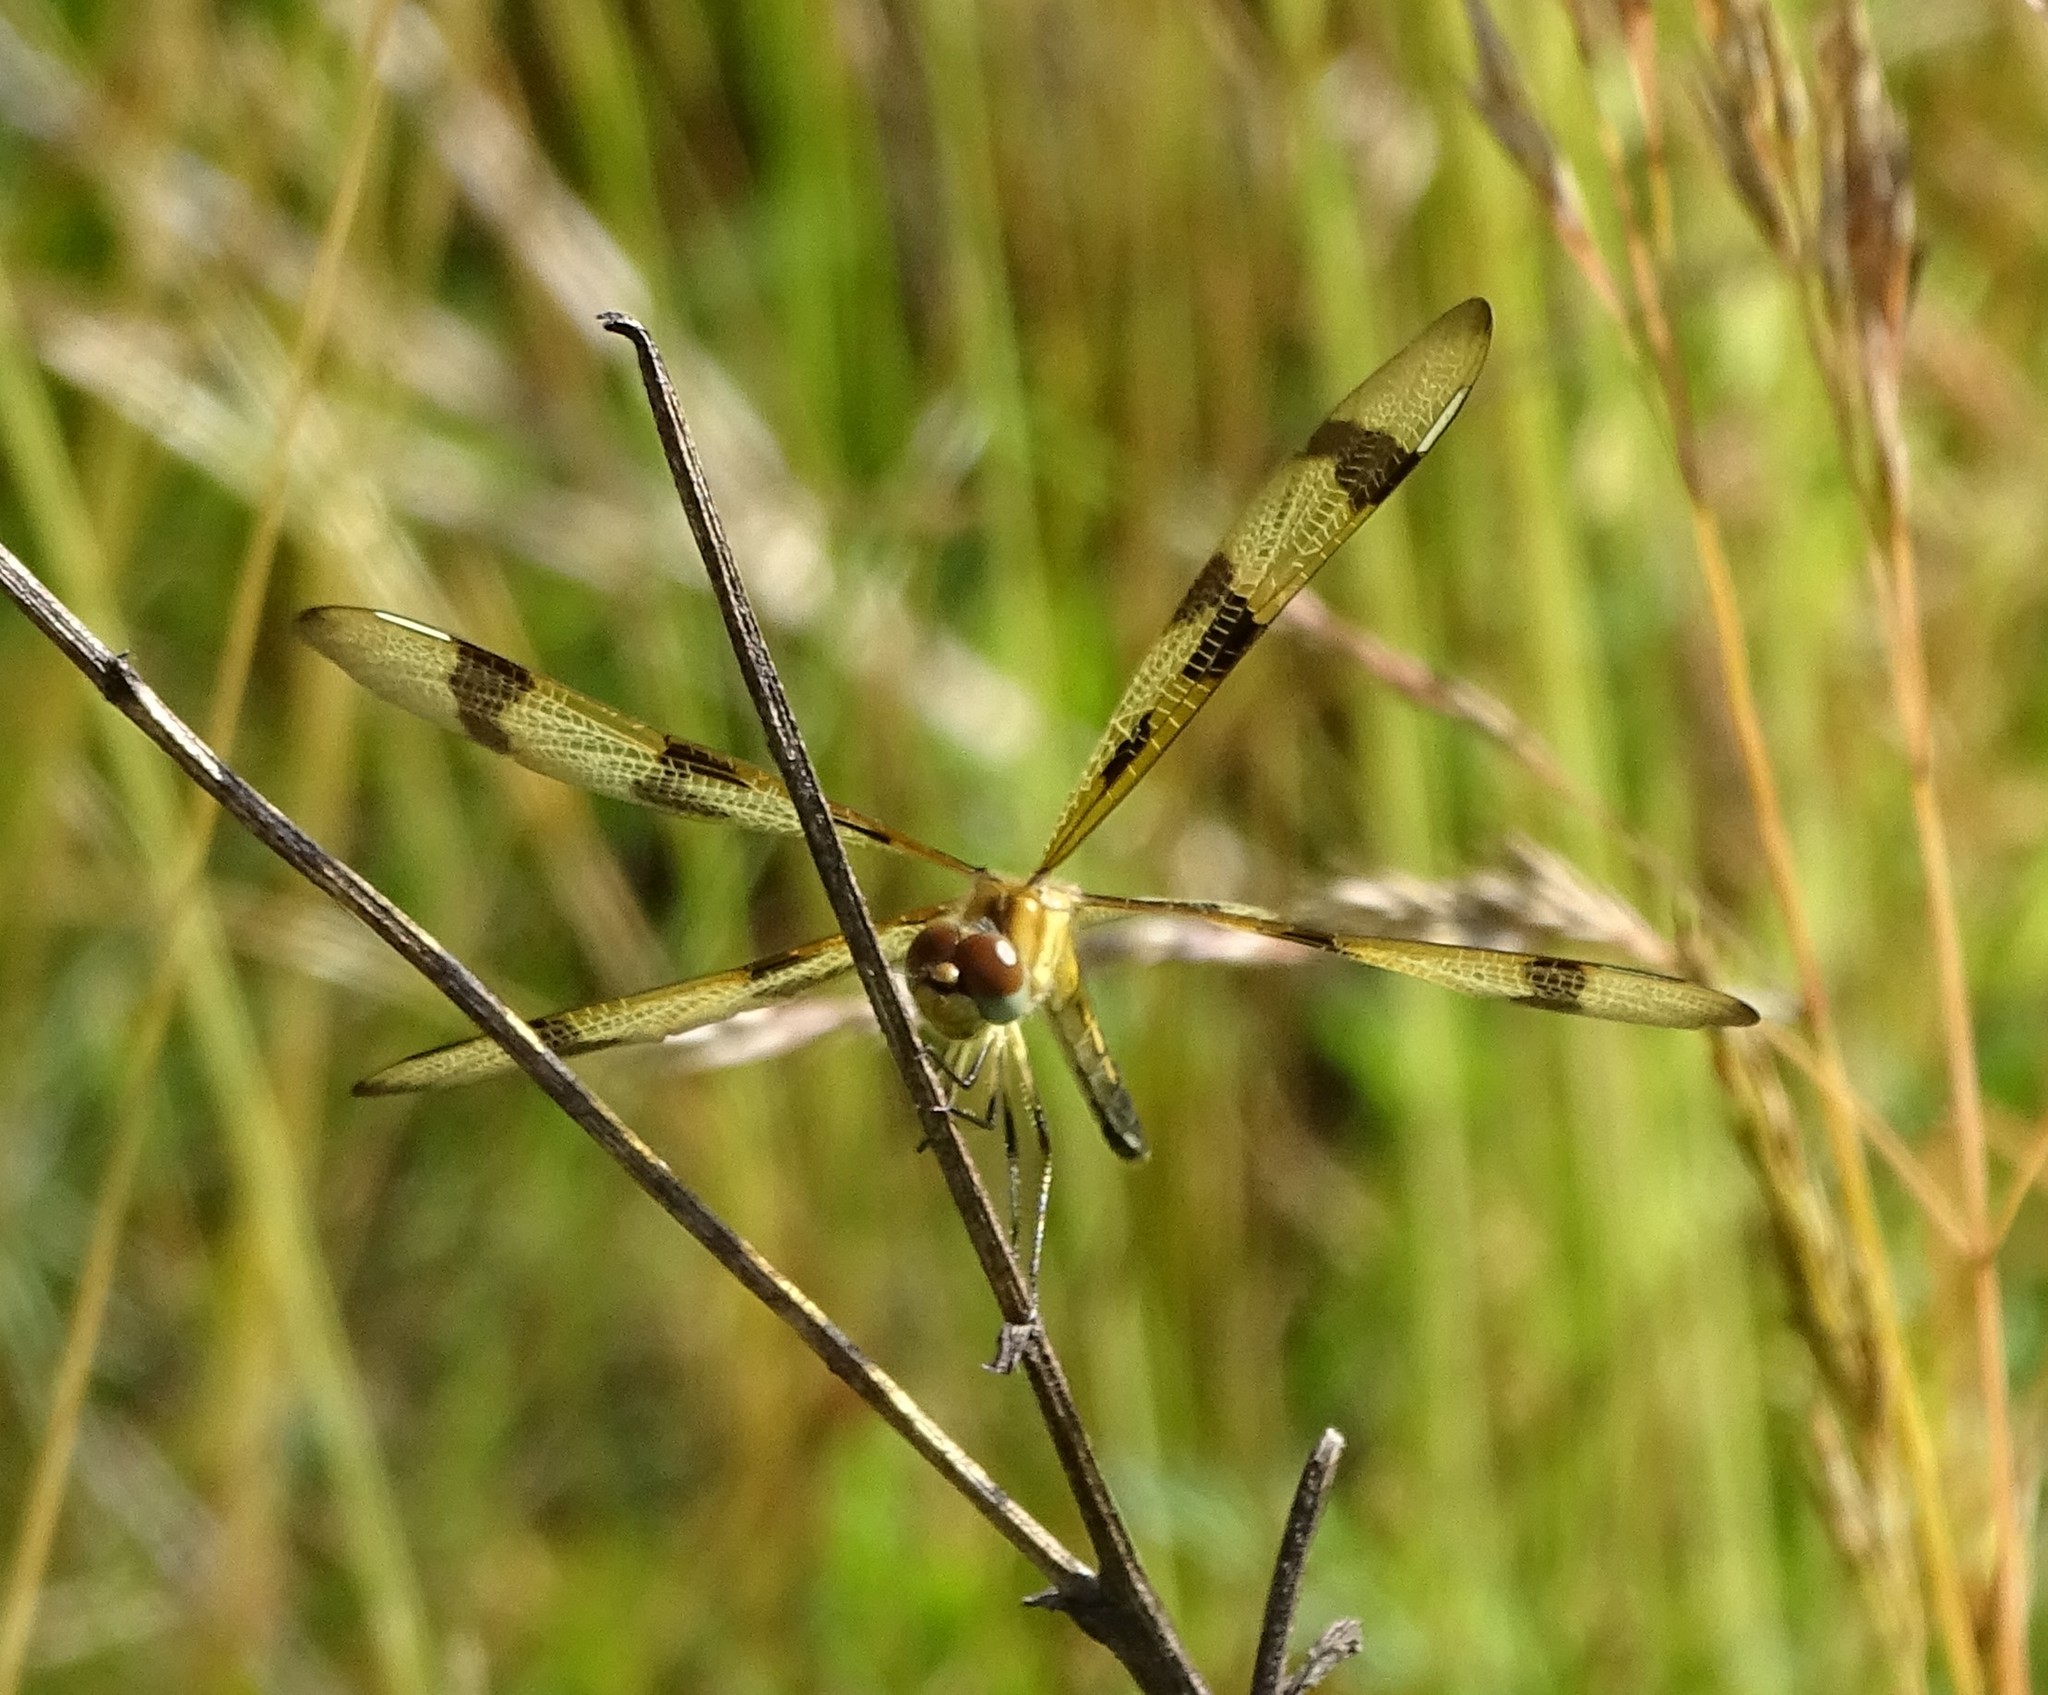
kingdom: Animalia
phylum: Arthropoda
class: Insecta
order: Odonata
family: Libellulidae
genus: Celithemis
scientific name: Celithemis eponina
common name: Halloween pennant
